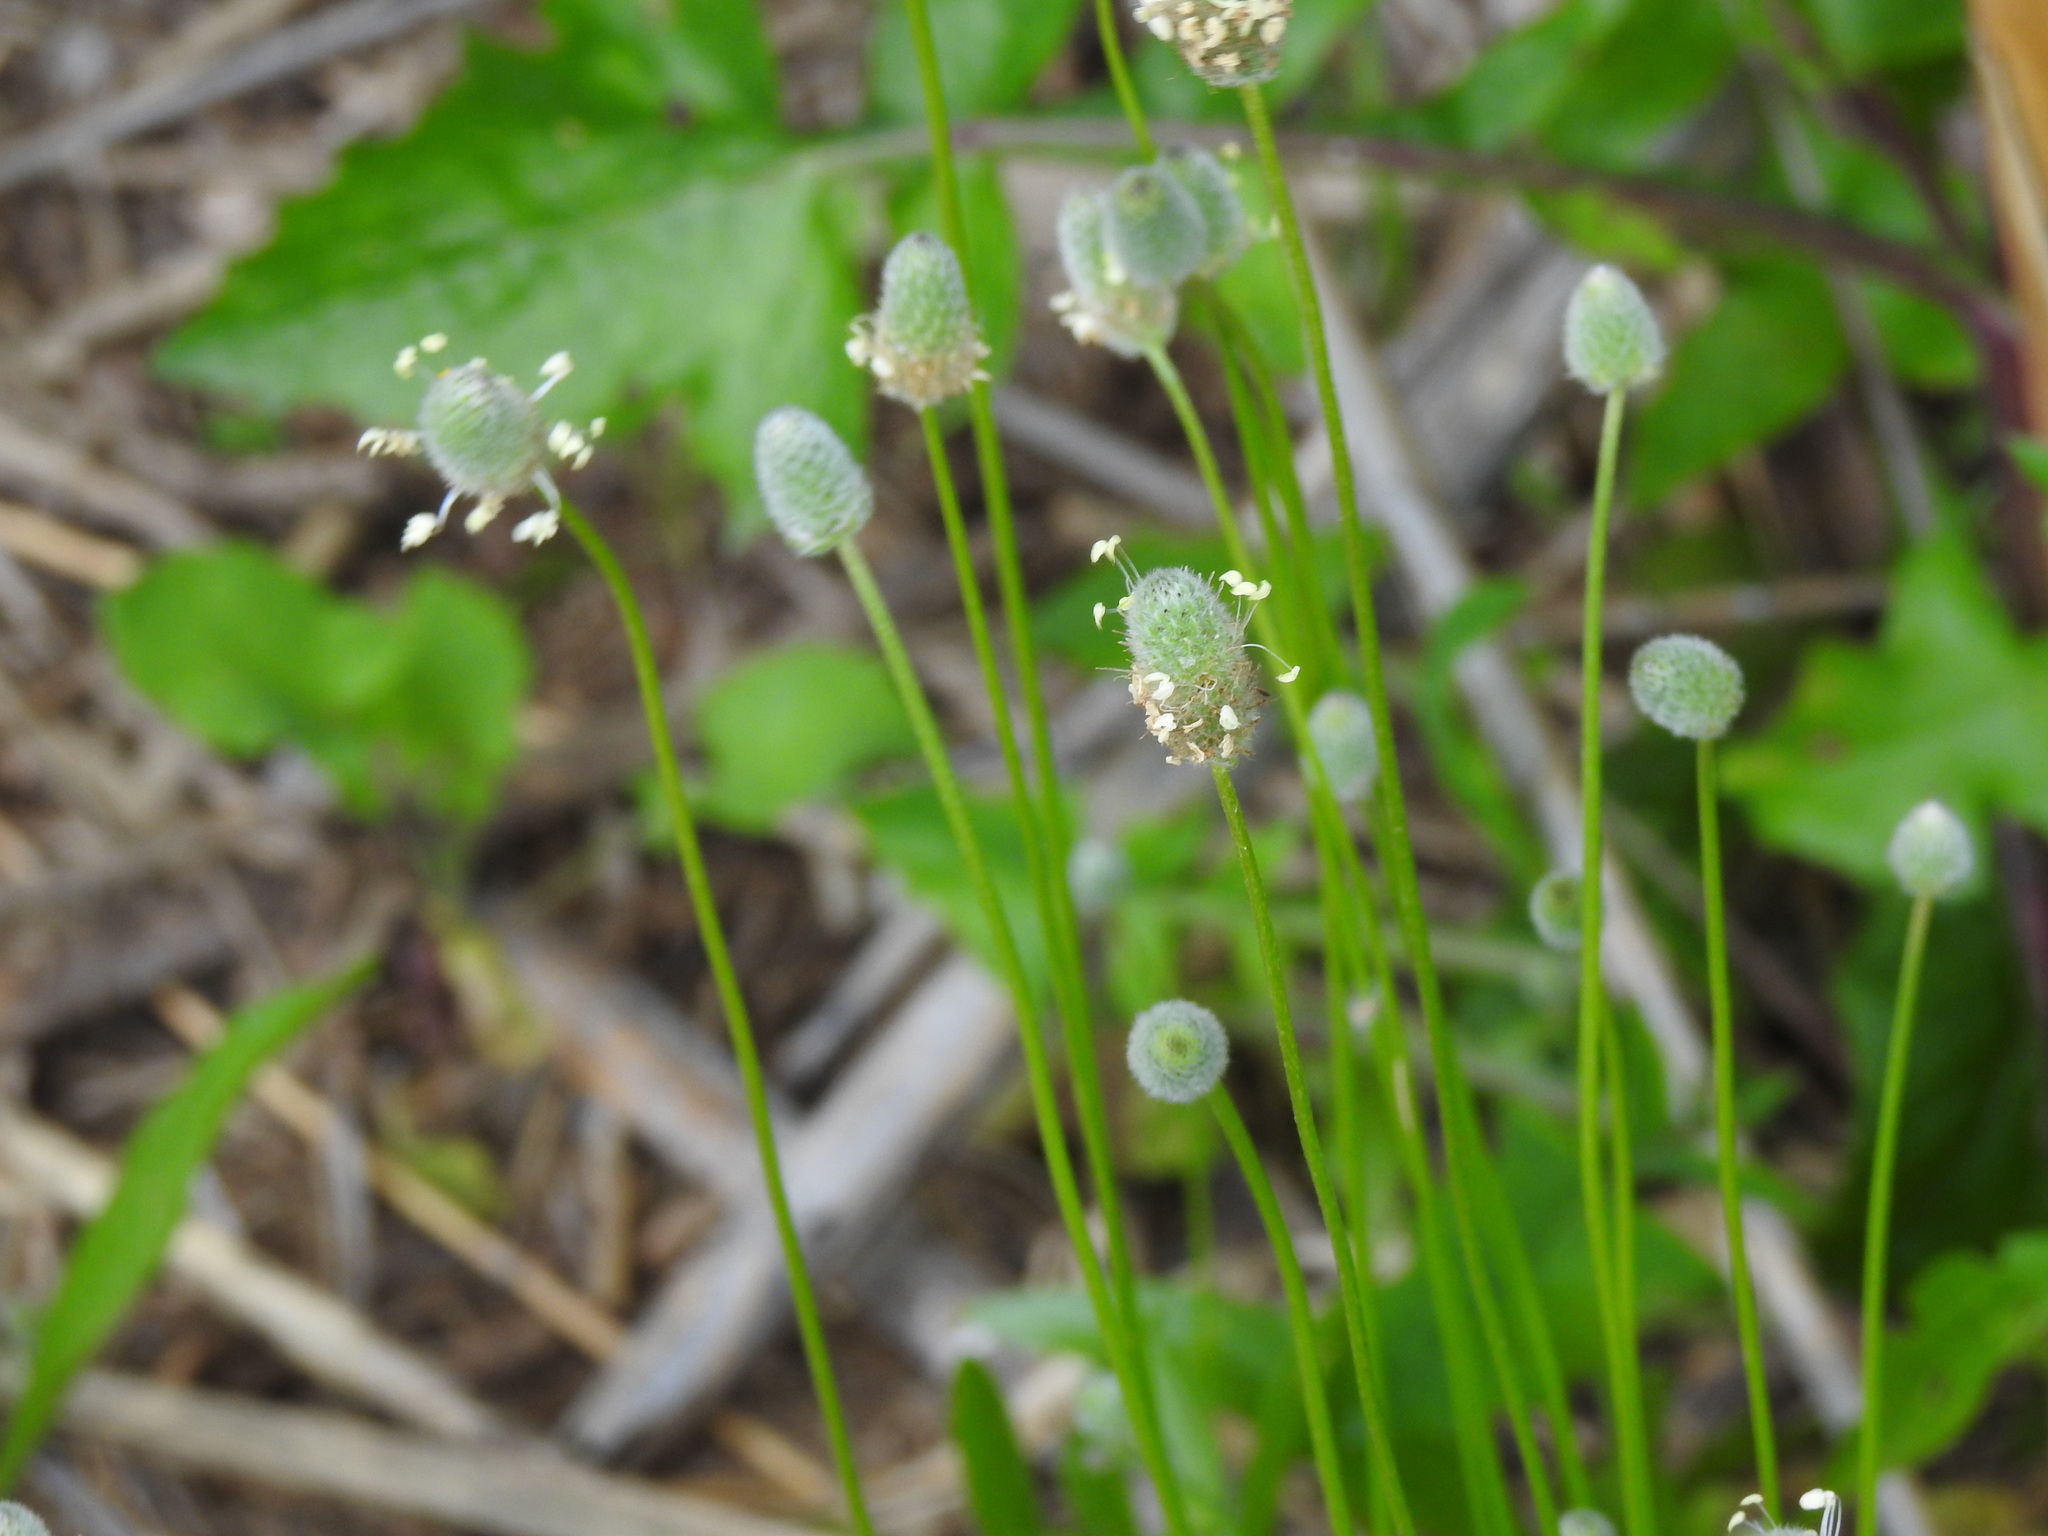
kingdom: Plantae
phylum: Tracheophyta
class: Magnoliopsida
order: Lamiales
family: Plantaginaceae
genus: Plantago
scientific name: Plantago lagopus
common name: Hare-foot plantain
